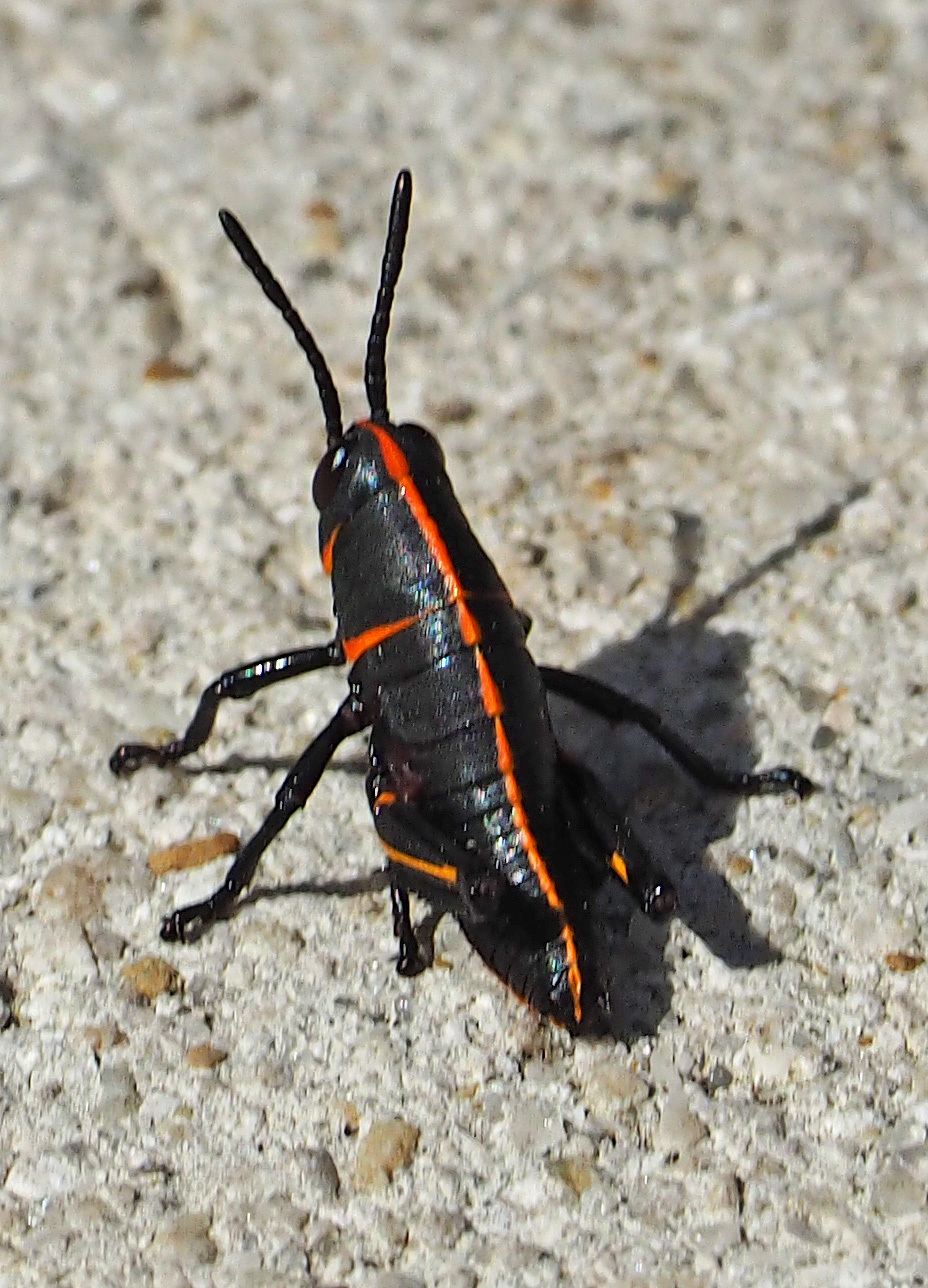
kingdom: Animalia
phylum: Arthropoda
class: Insecta
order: Orthoptera
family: Romaleidae
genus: Romalea
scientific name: Romalea microptera
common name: Eastern lubber grasshopper
